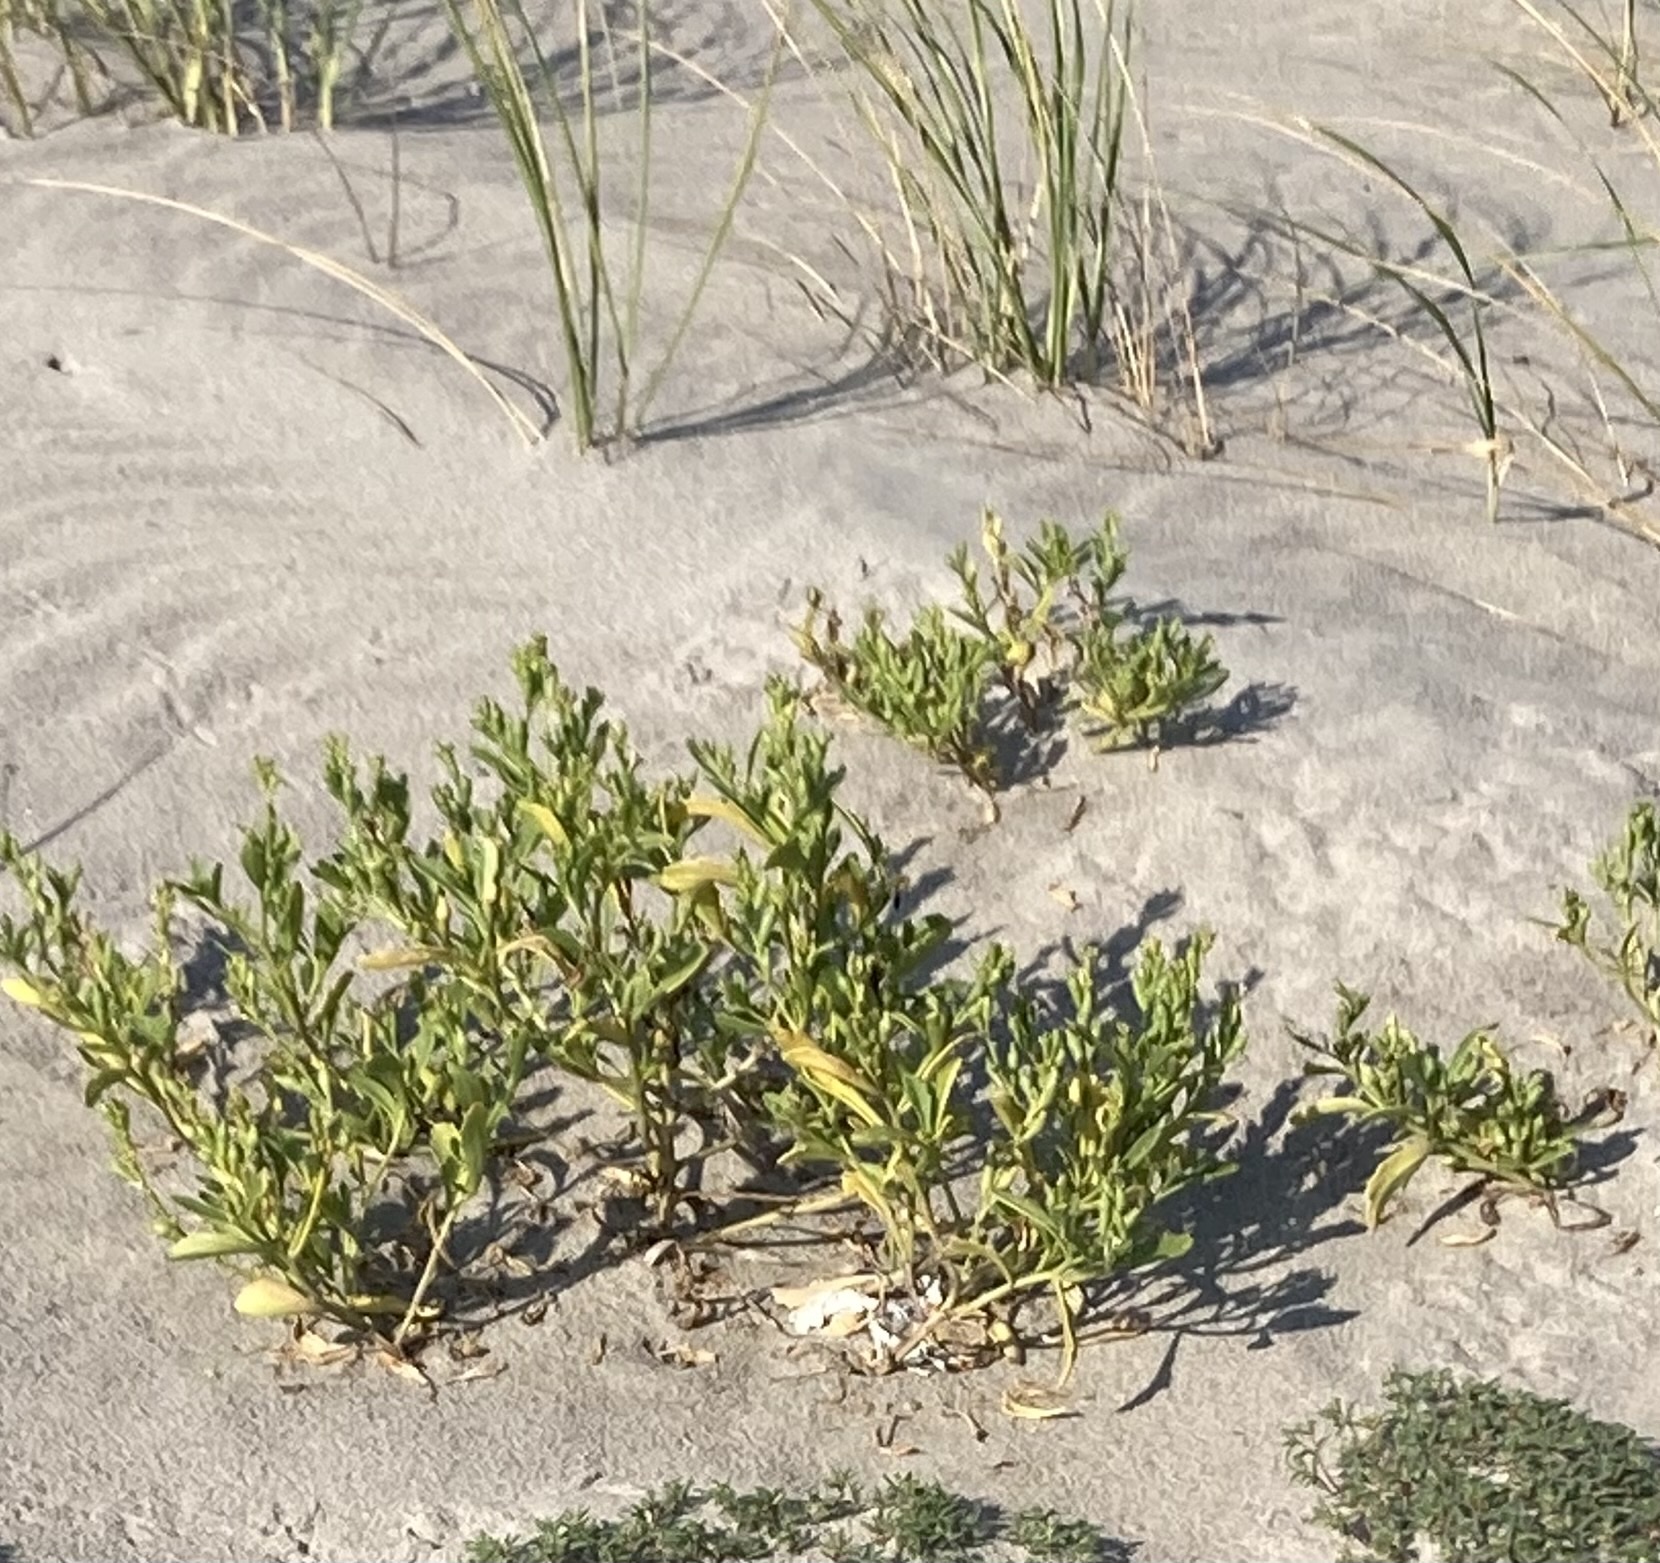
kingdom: Plantae
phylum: Tracheophyta
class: Magnoliopsida
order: Brassicales
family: Brassicaceae
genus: Cakile
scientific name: Cakile edentula
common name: American sea rocket
